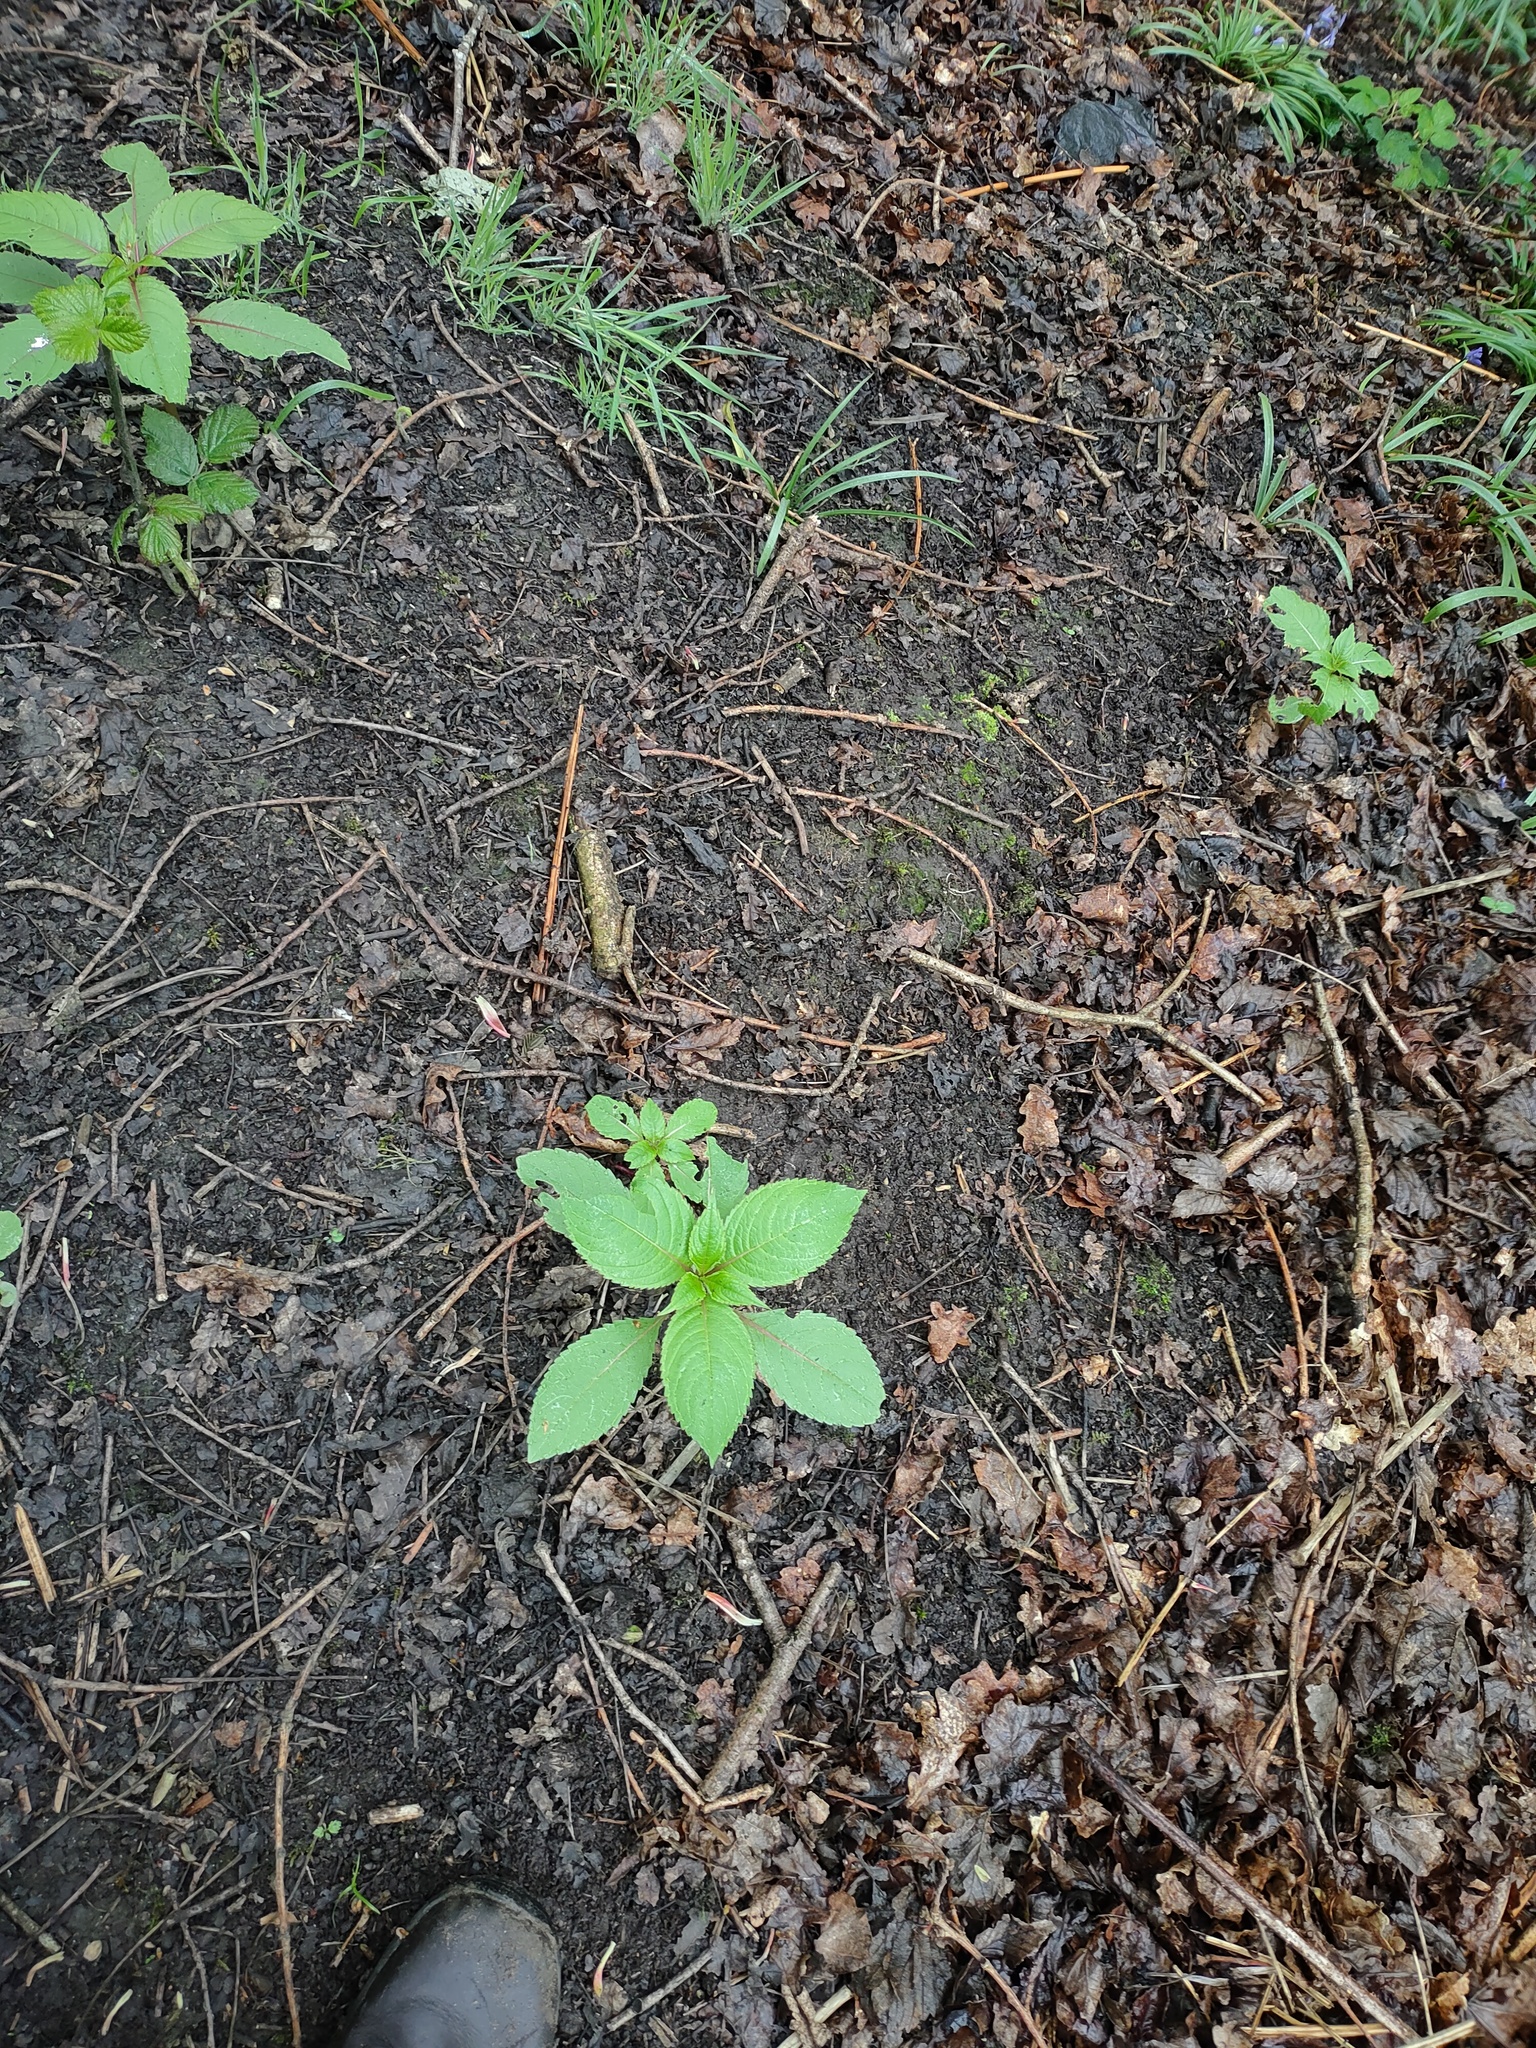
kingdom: Plantae
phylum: Tracheophyta
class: Magnoliopsida
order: Ericales
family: Balsaminaceae
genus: Impatiens
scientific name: Impatiens glandulifera
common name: Himalayan balsam
